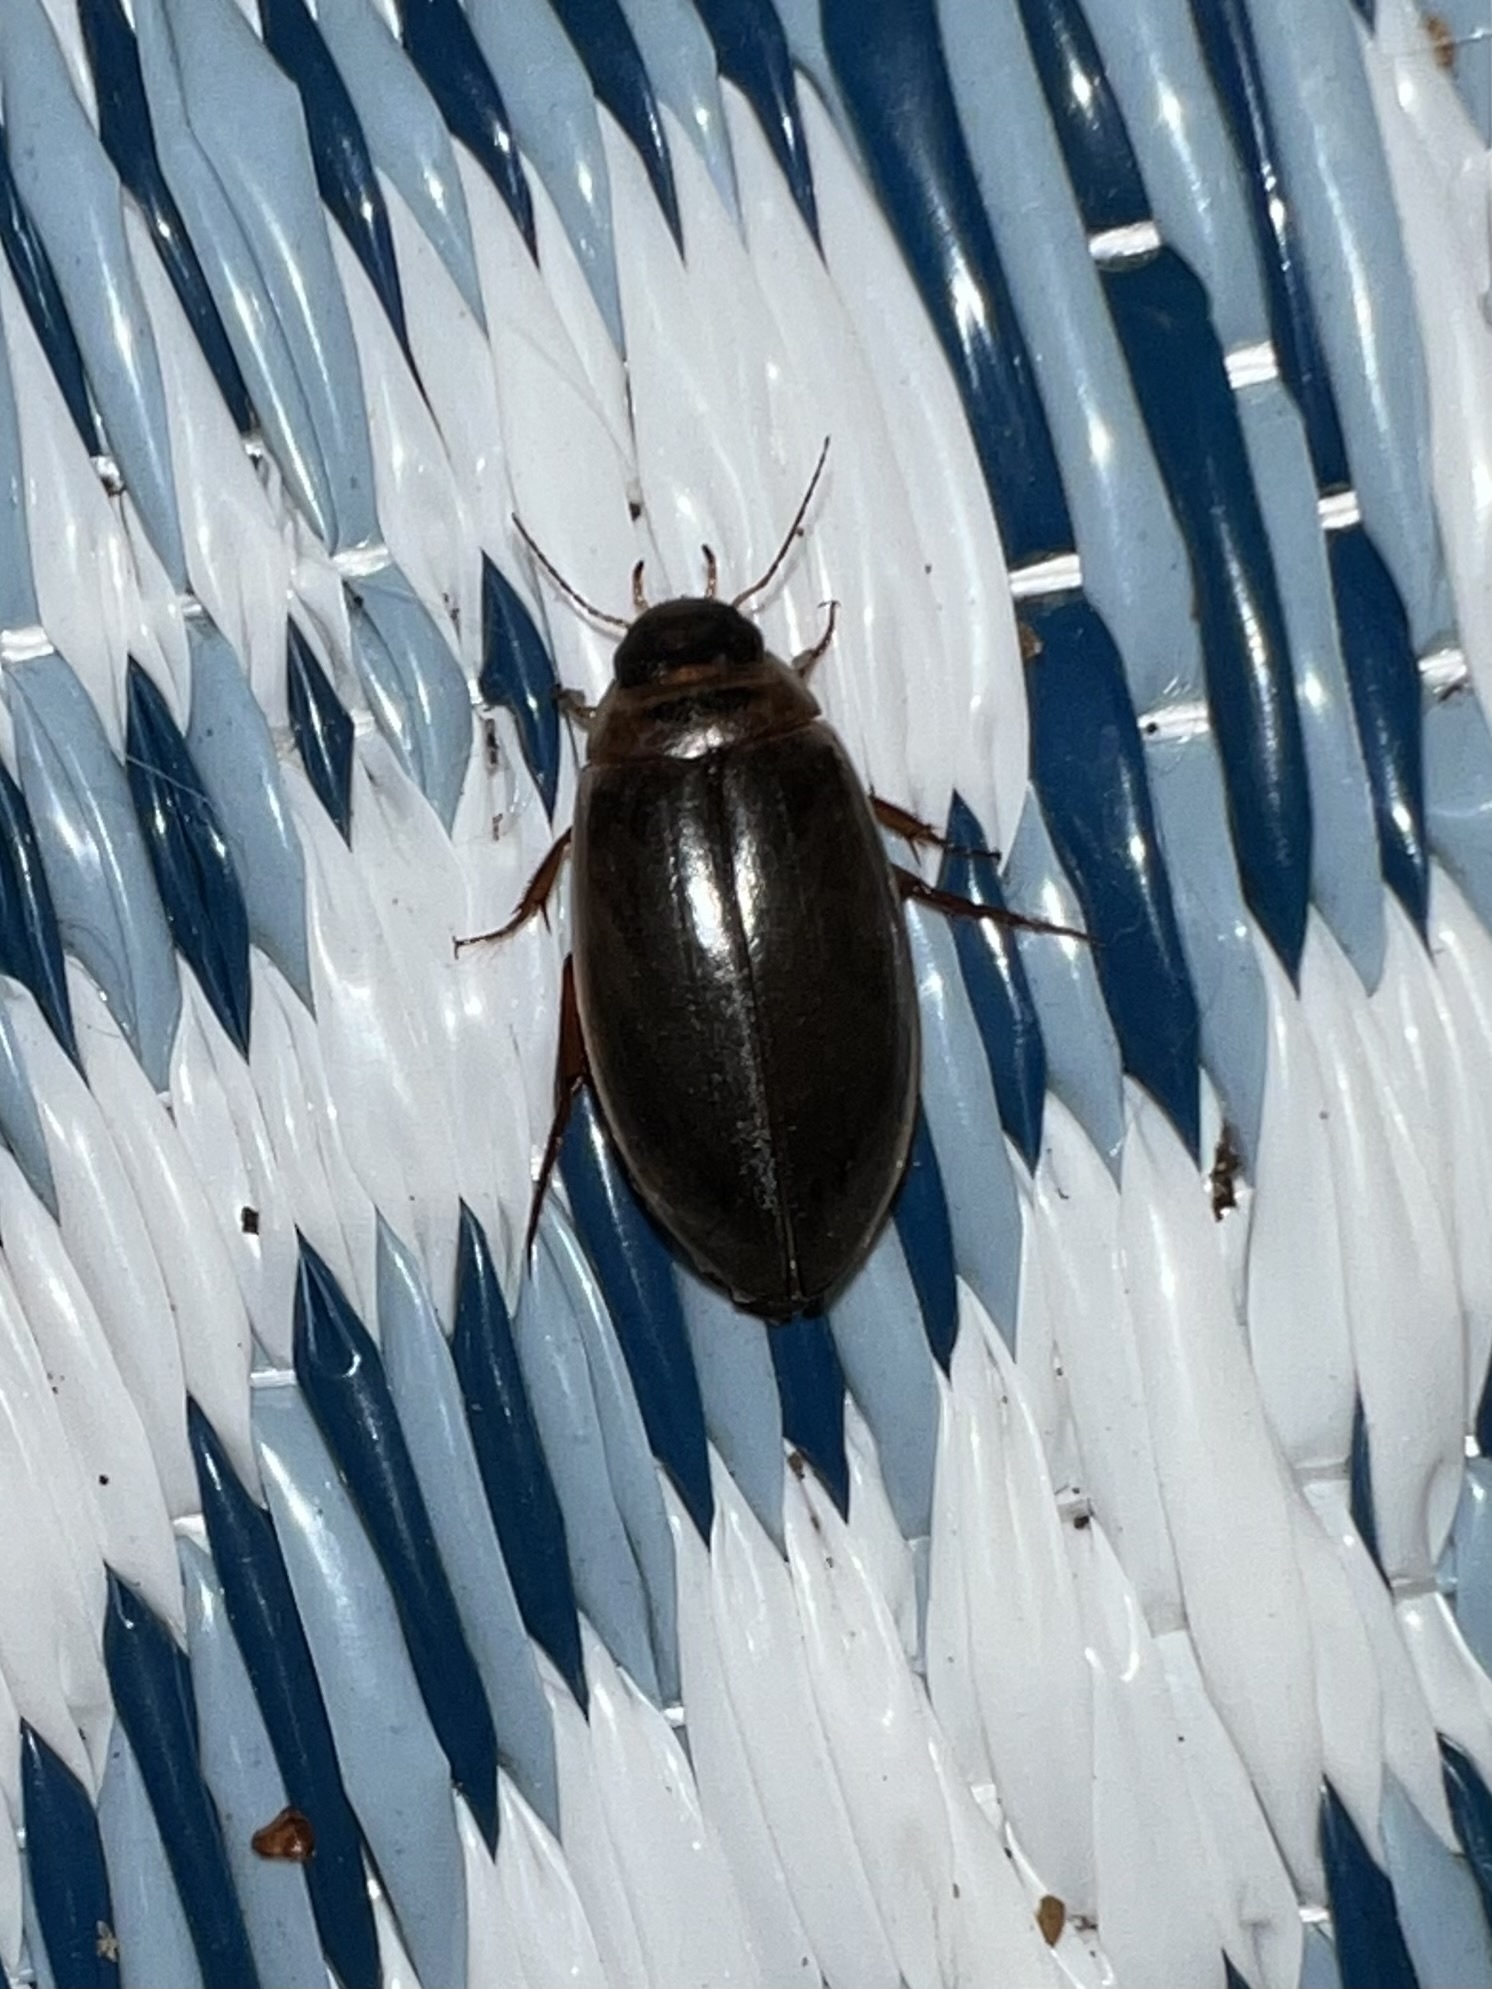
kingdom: Animalia
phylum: Arthropoda
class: Insecta
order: Coleoptera
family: Dytiscidae
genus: Colymbetes
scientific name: Colymbetes sculptilis
